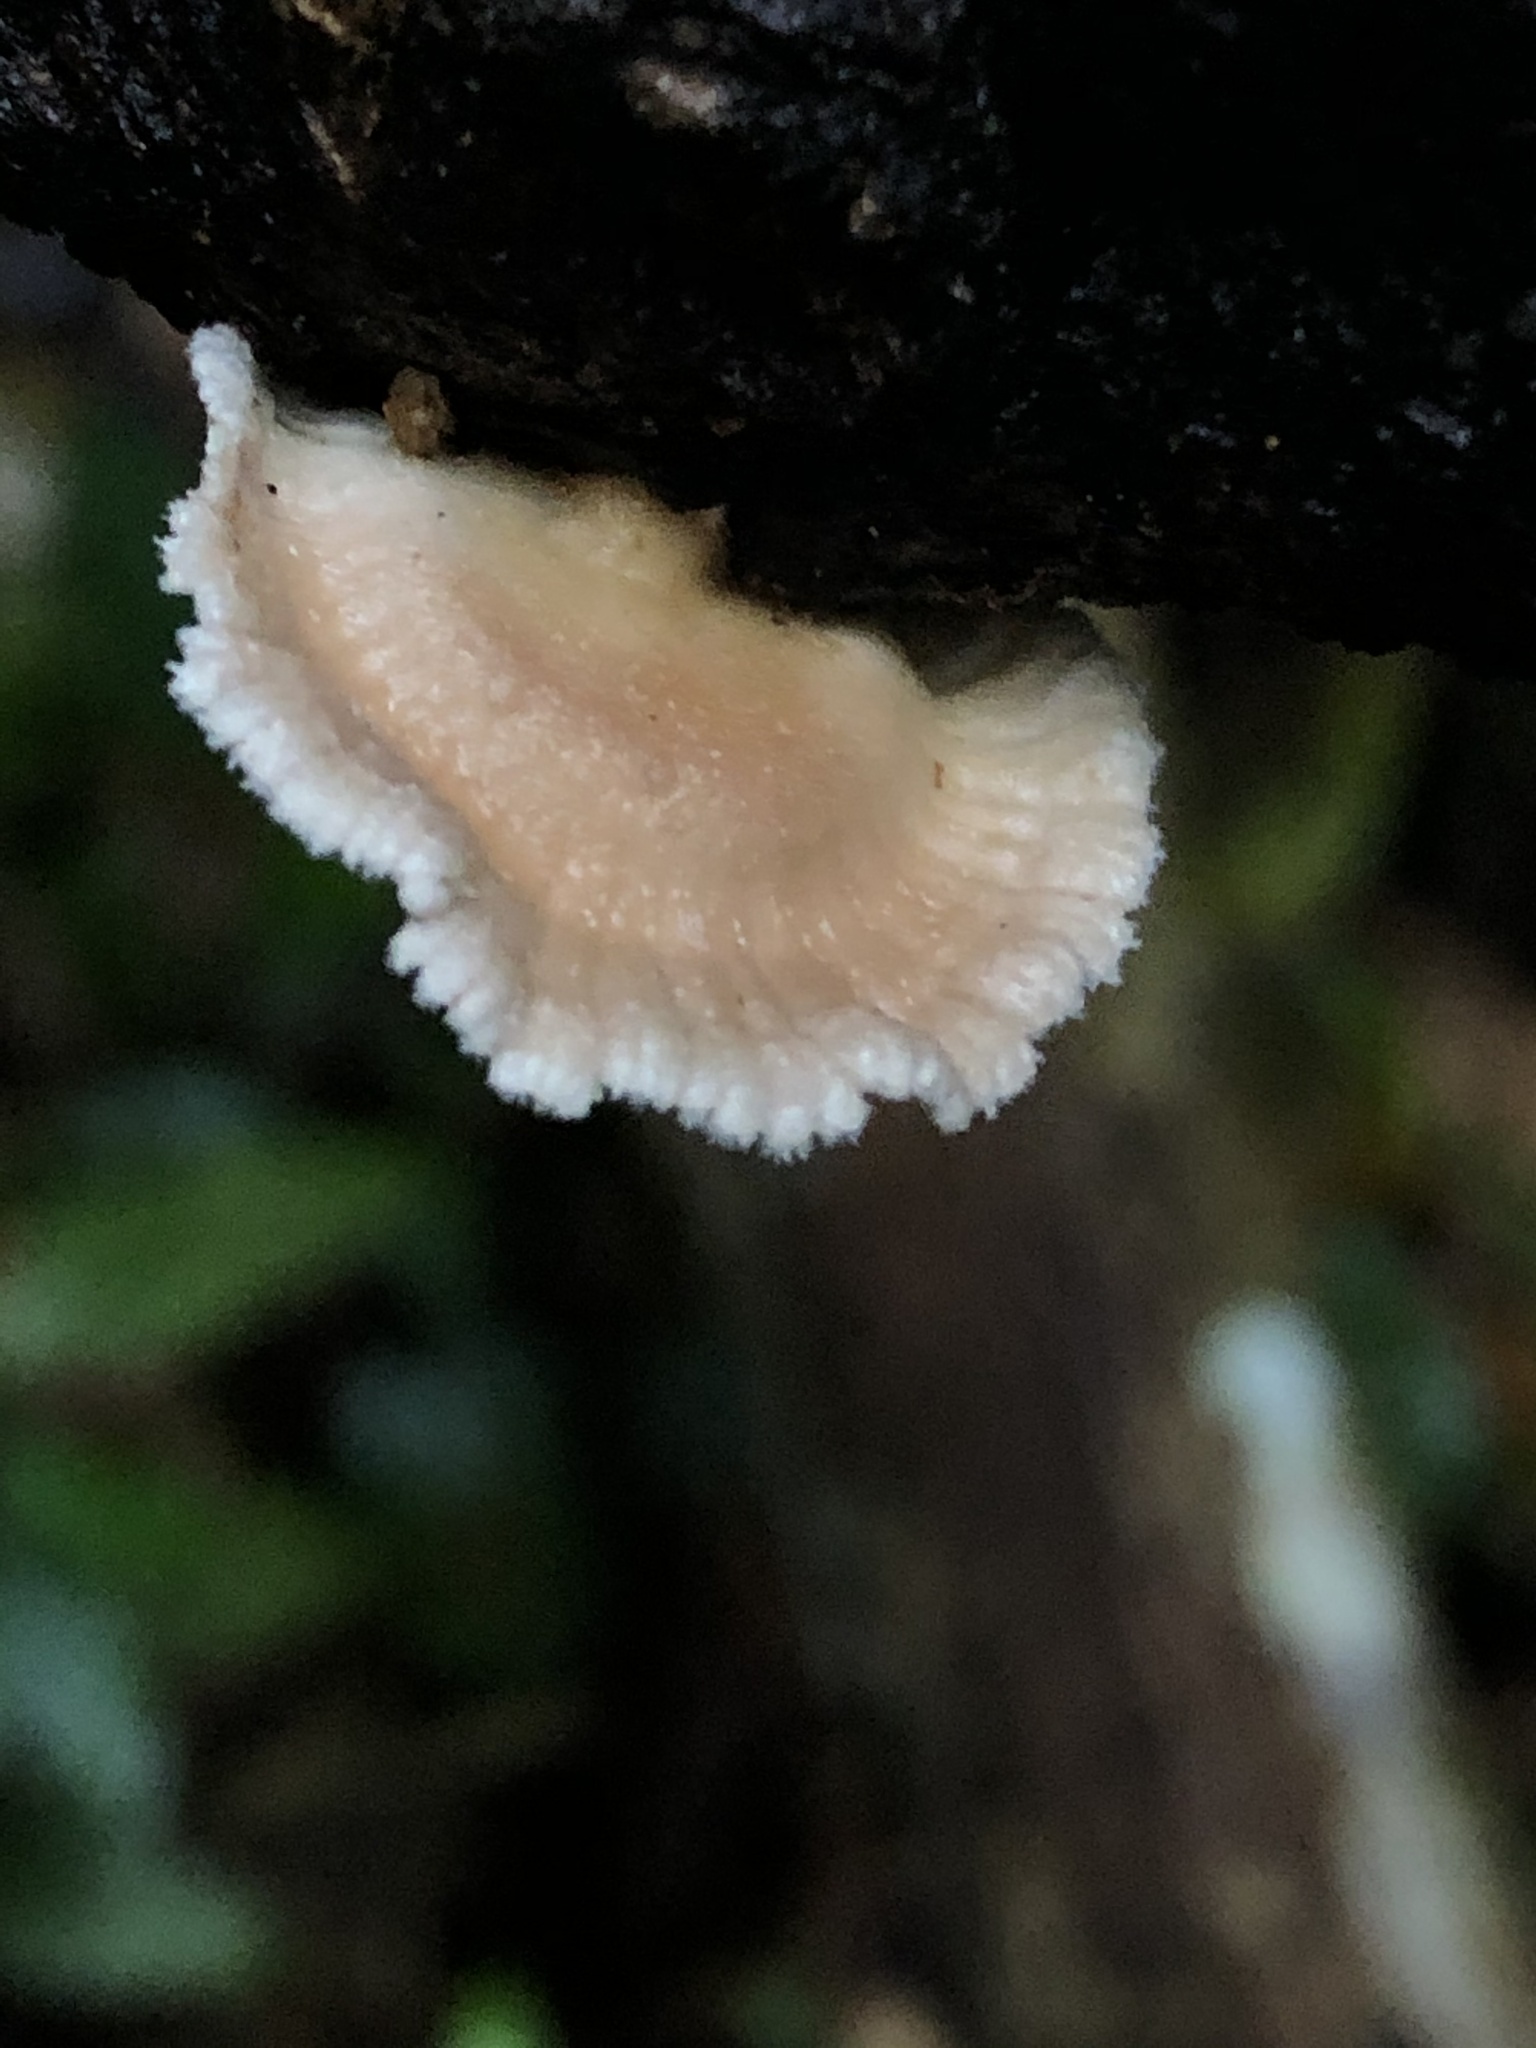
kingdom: Fungi
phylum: Basidiomycota
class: Agaricomycetes
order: Agaricales
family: Schizophyllaceae
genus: Schizophyllum
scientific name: Schizophyllum commune
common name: Common porecrust
